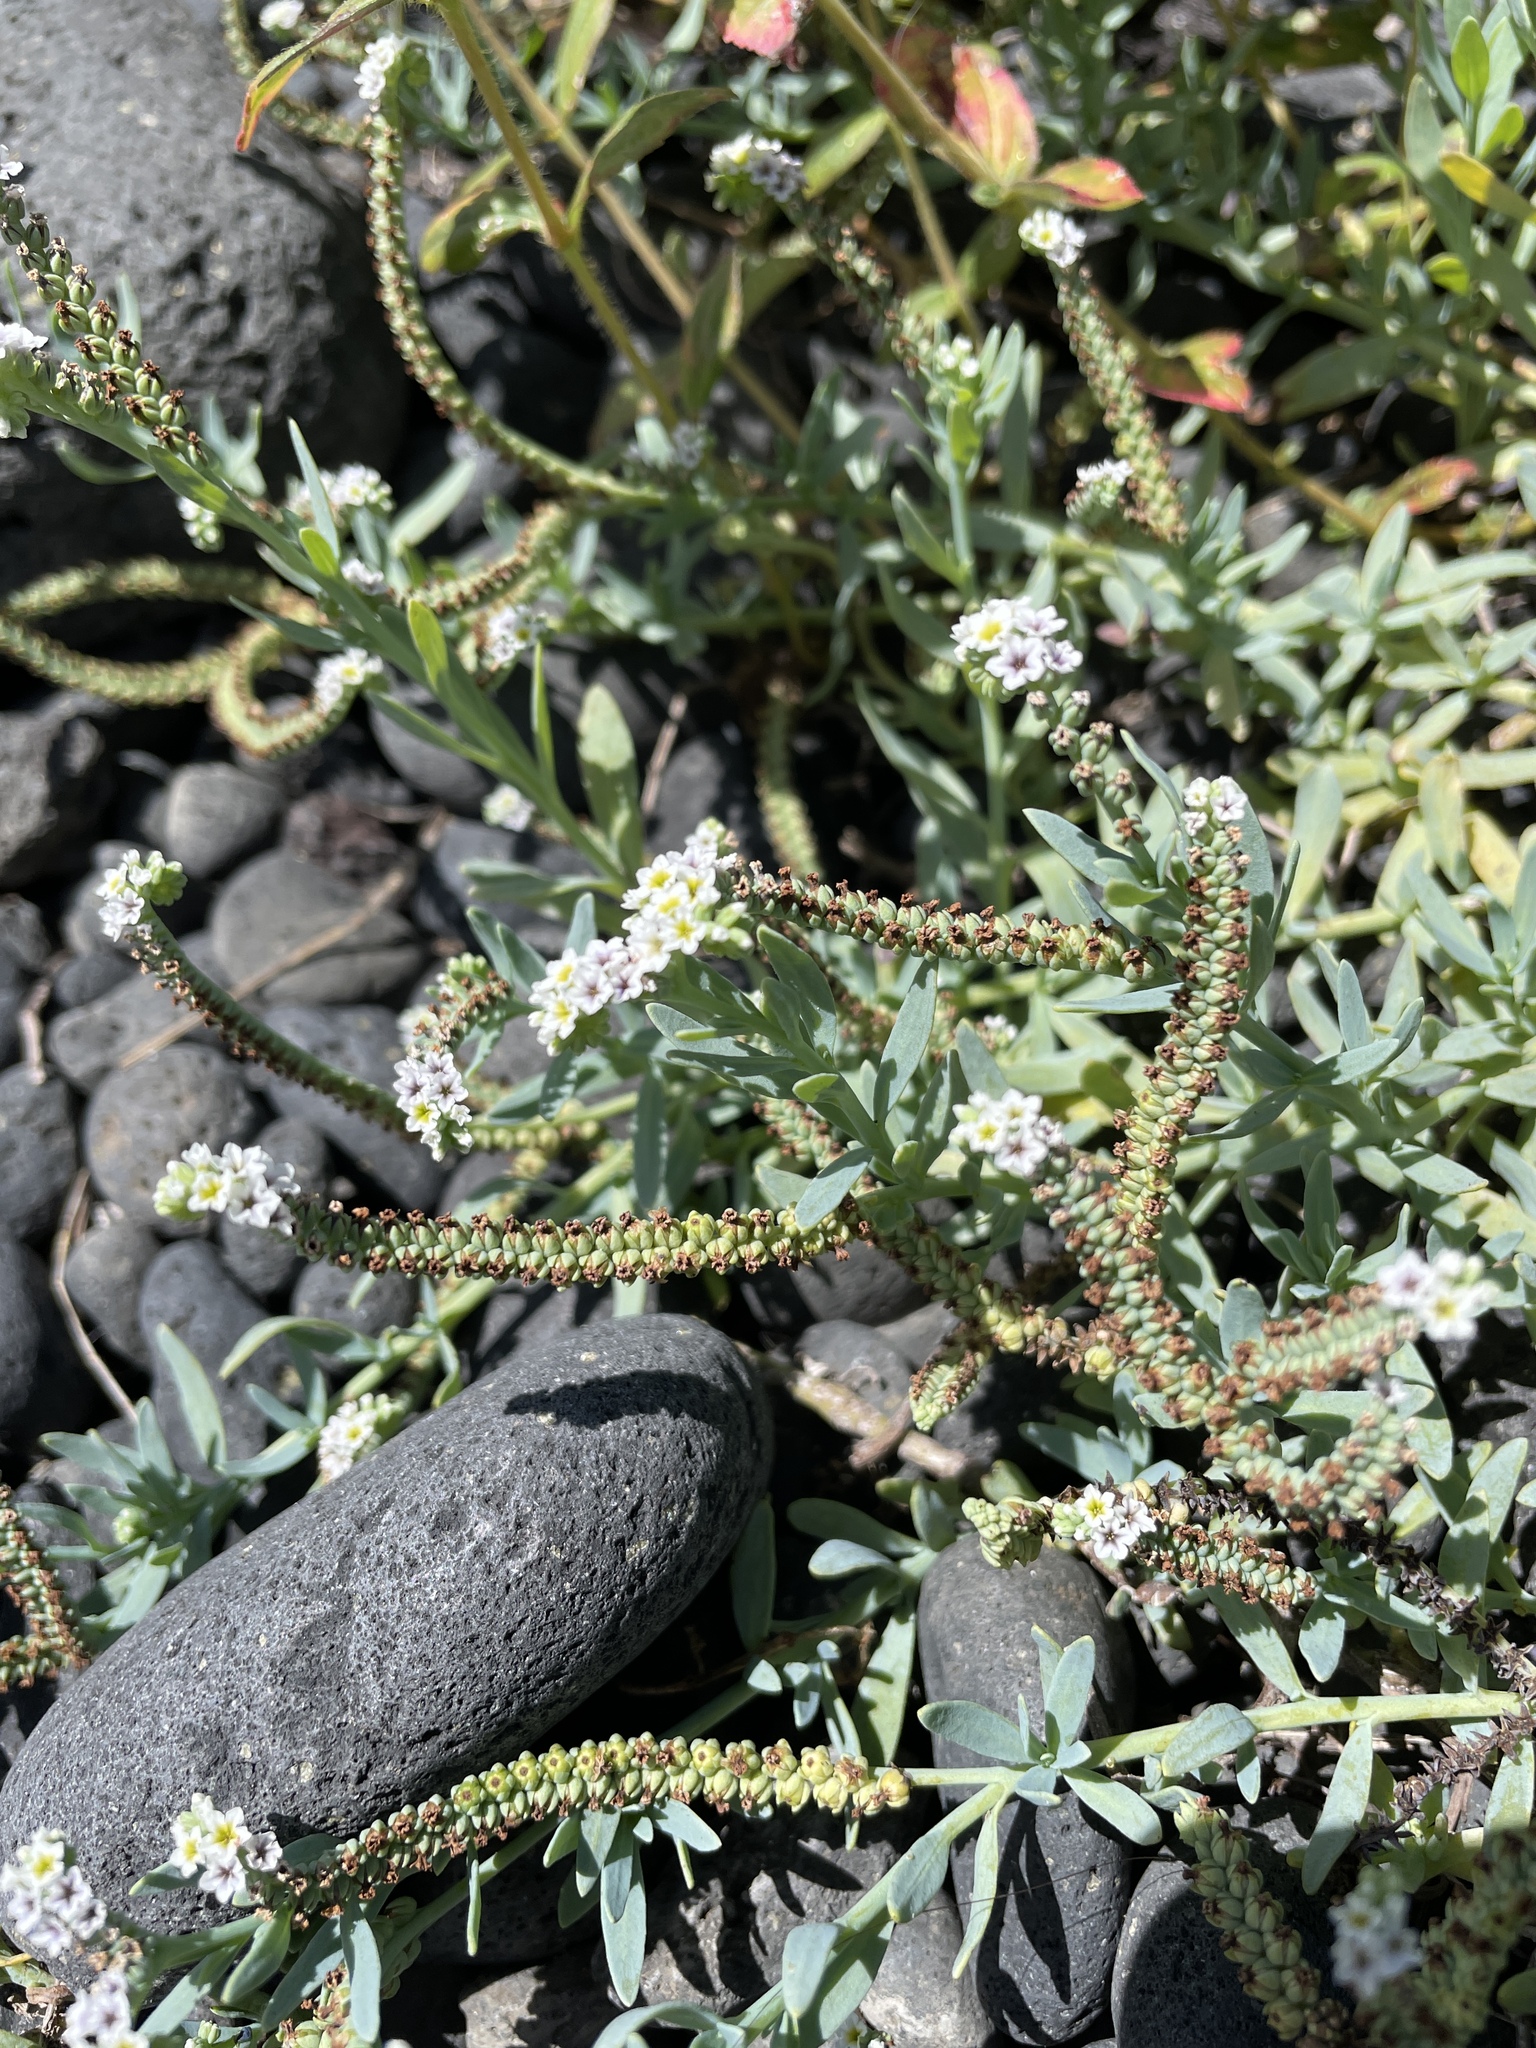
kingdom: Plantae
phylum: Tracheophyta
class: Magnoliopsida
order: Boraginales
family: Heliotropiaceae
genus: Heliotropium
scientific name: Heliotropium curassavicum
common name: Seaside heliotrope
